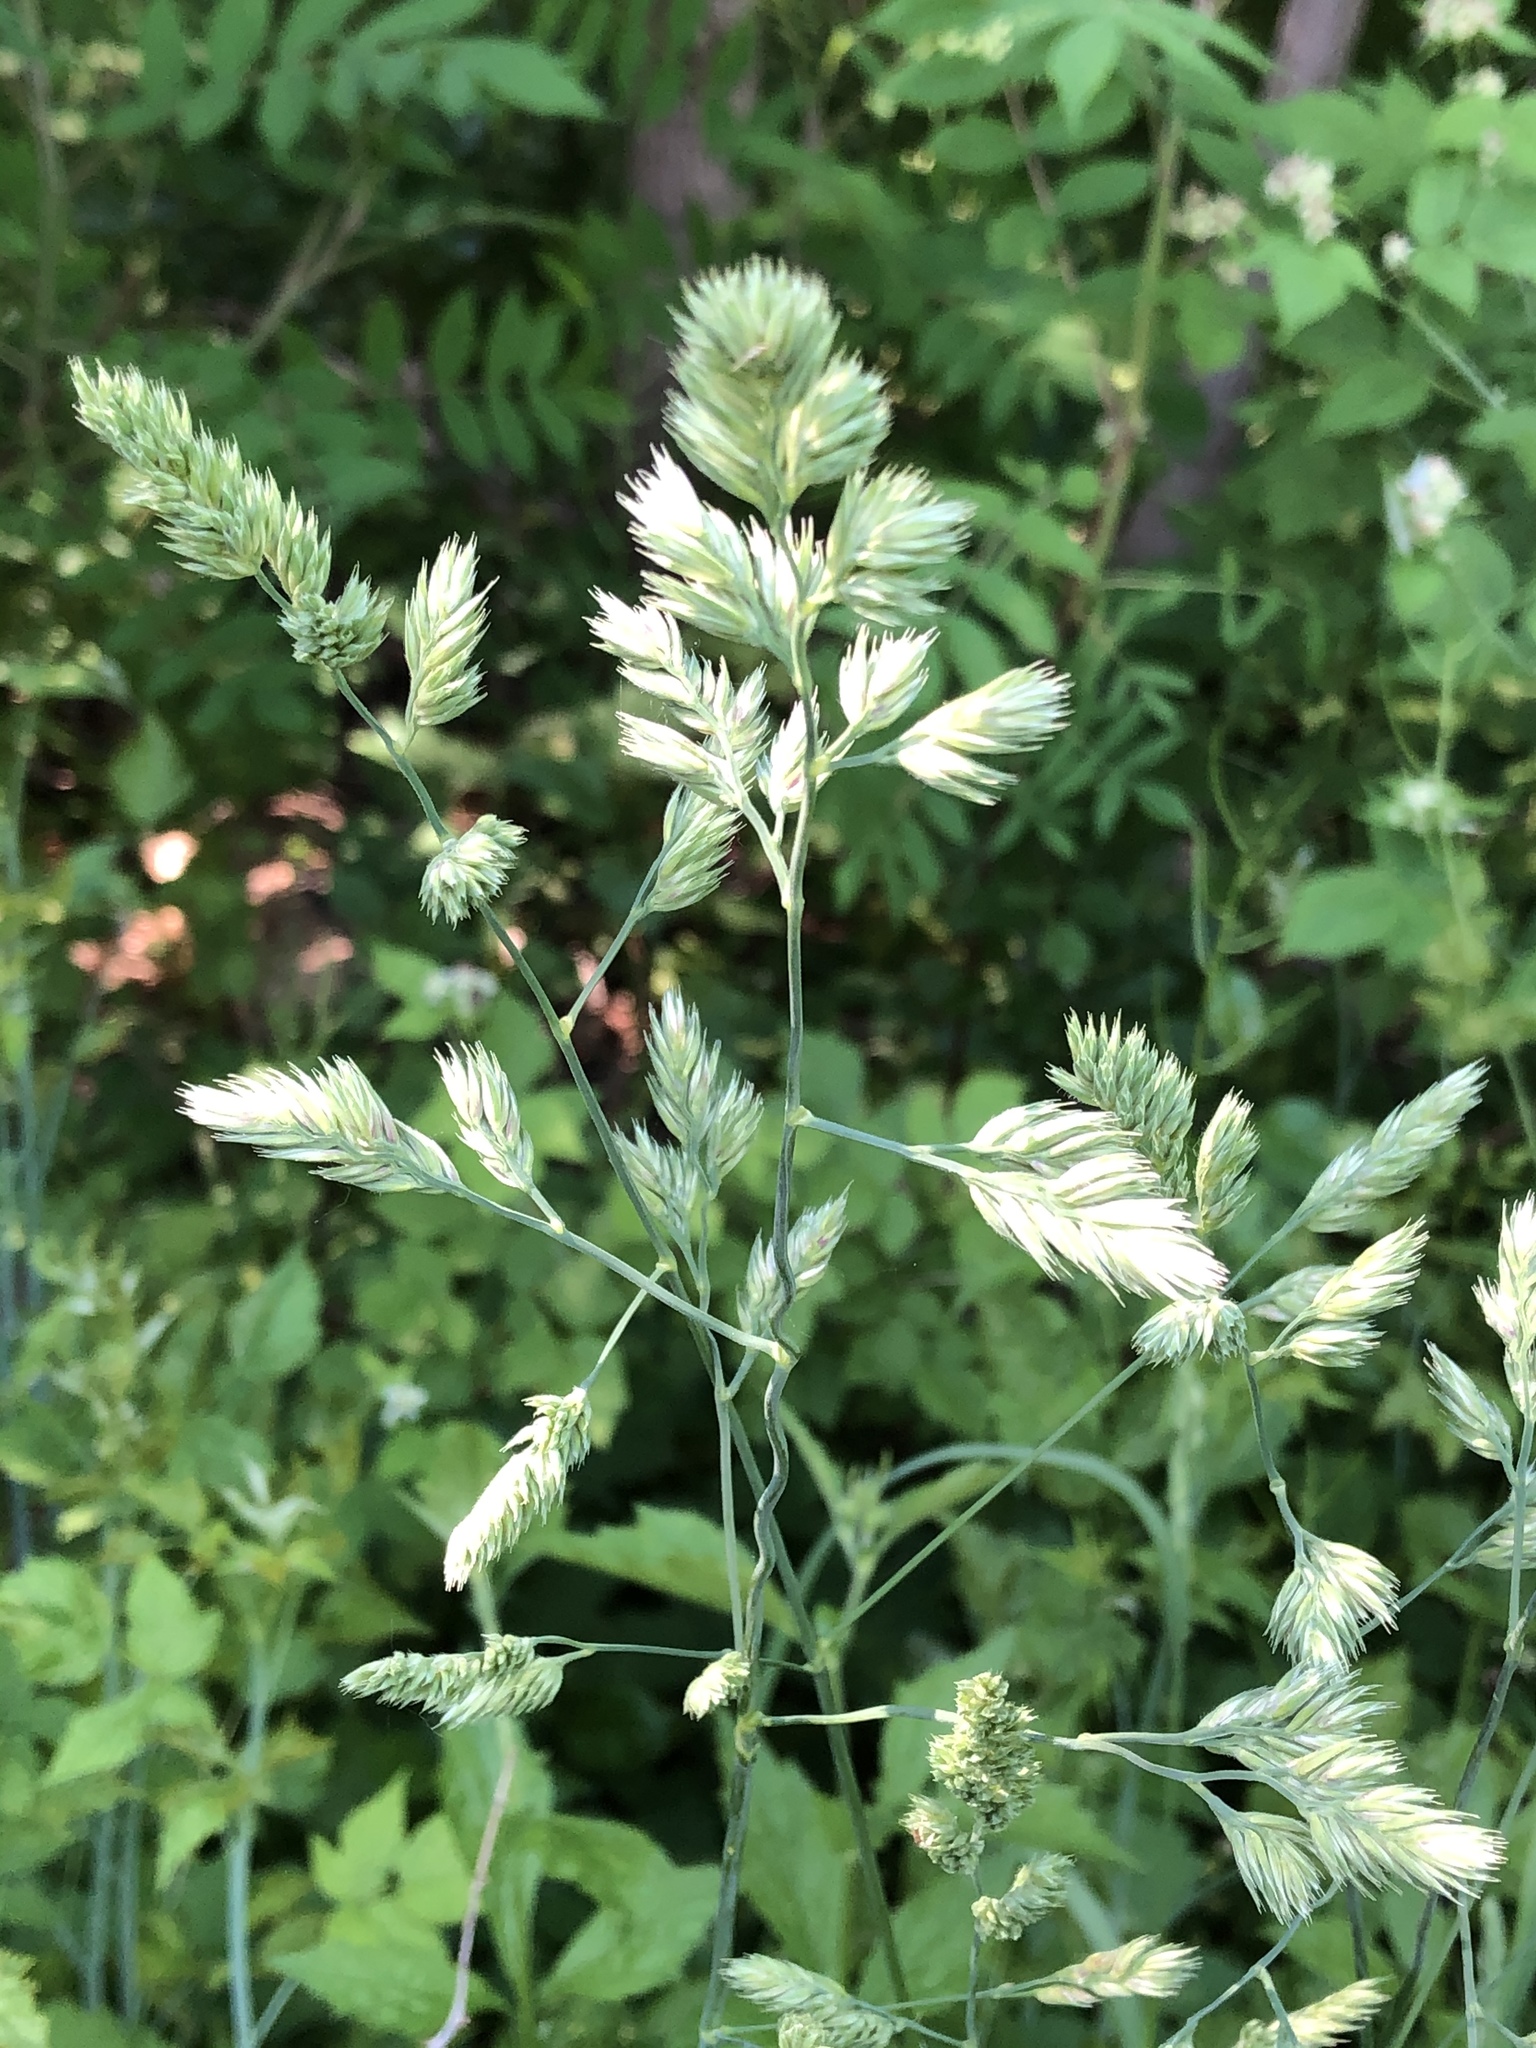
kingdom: Plantae
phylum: Tracheophyta
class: Liliopsida
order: Poales
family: Poaceae
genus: Dactylis
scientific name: Dactylis glomerata
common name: Orchardgrass
